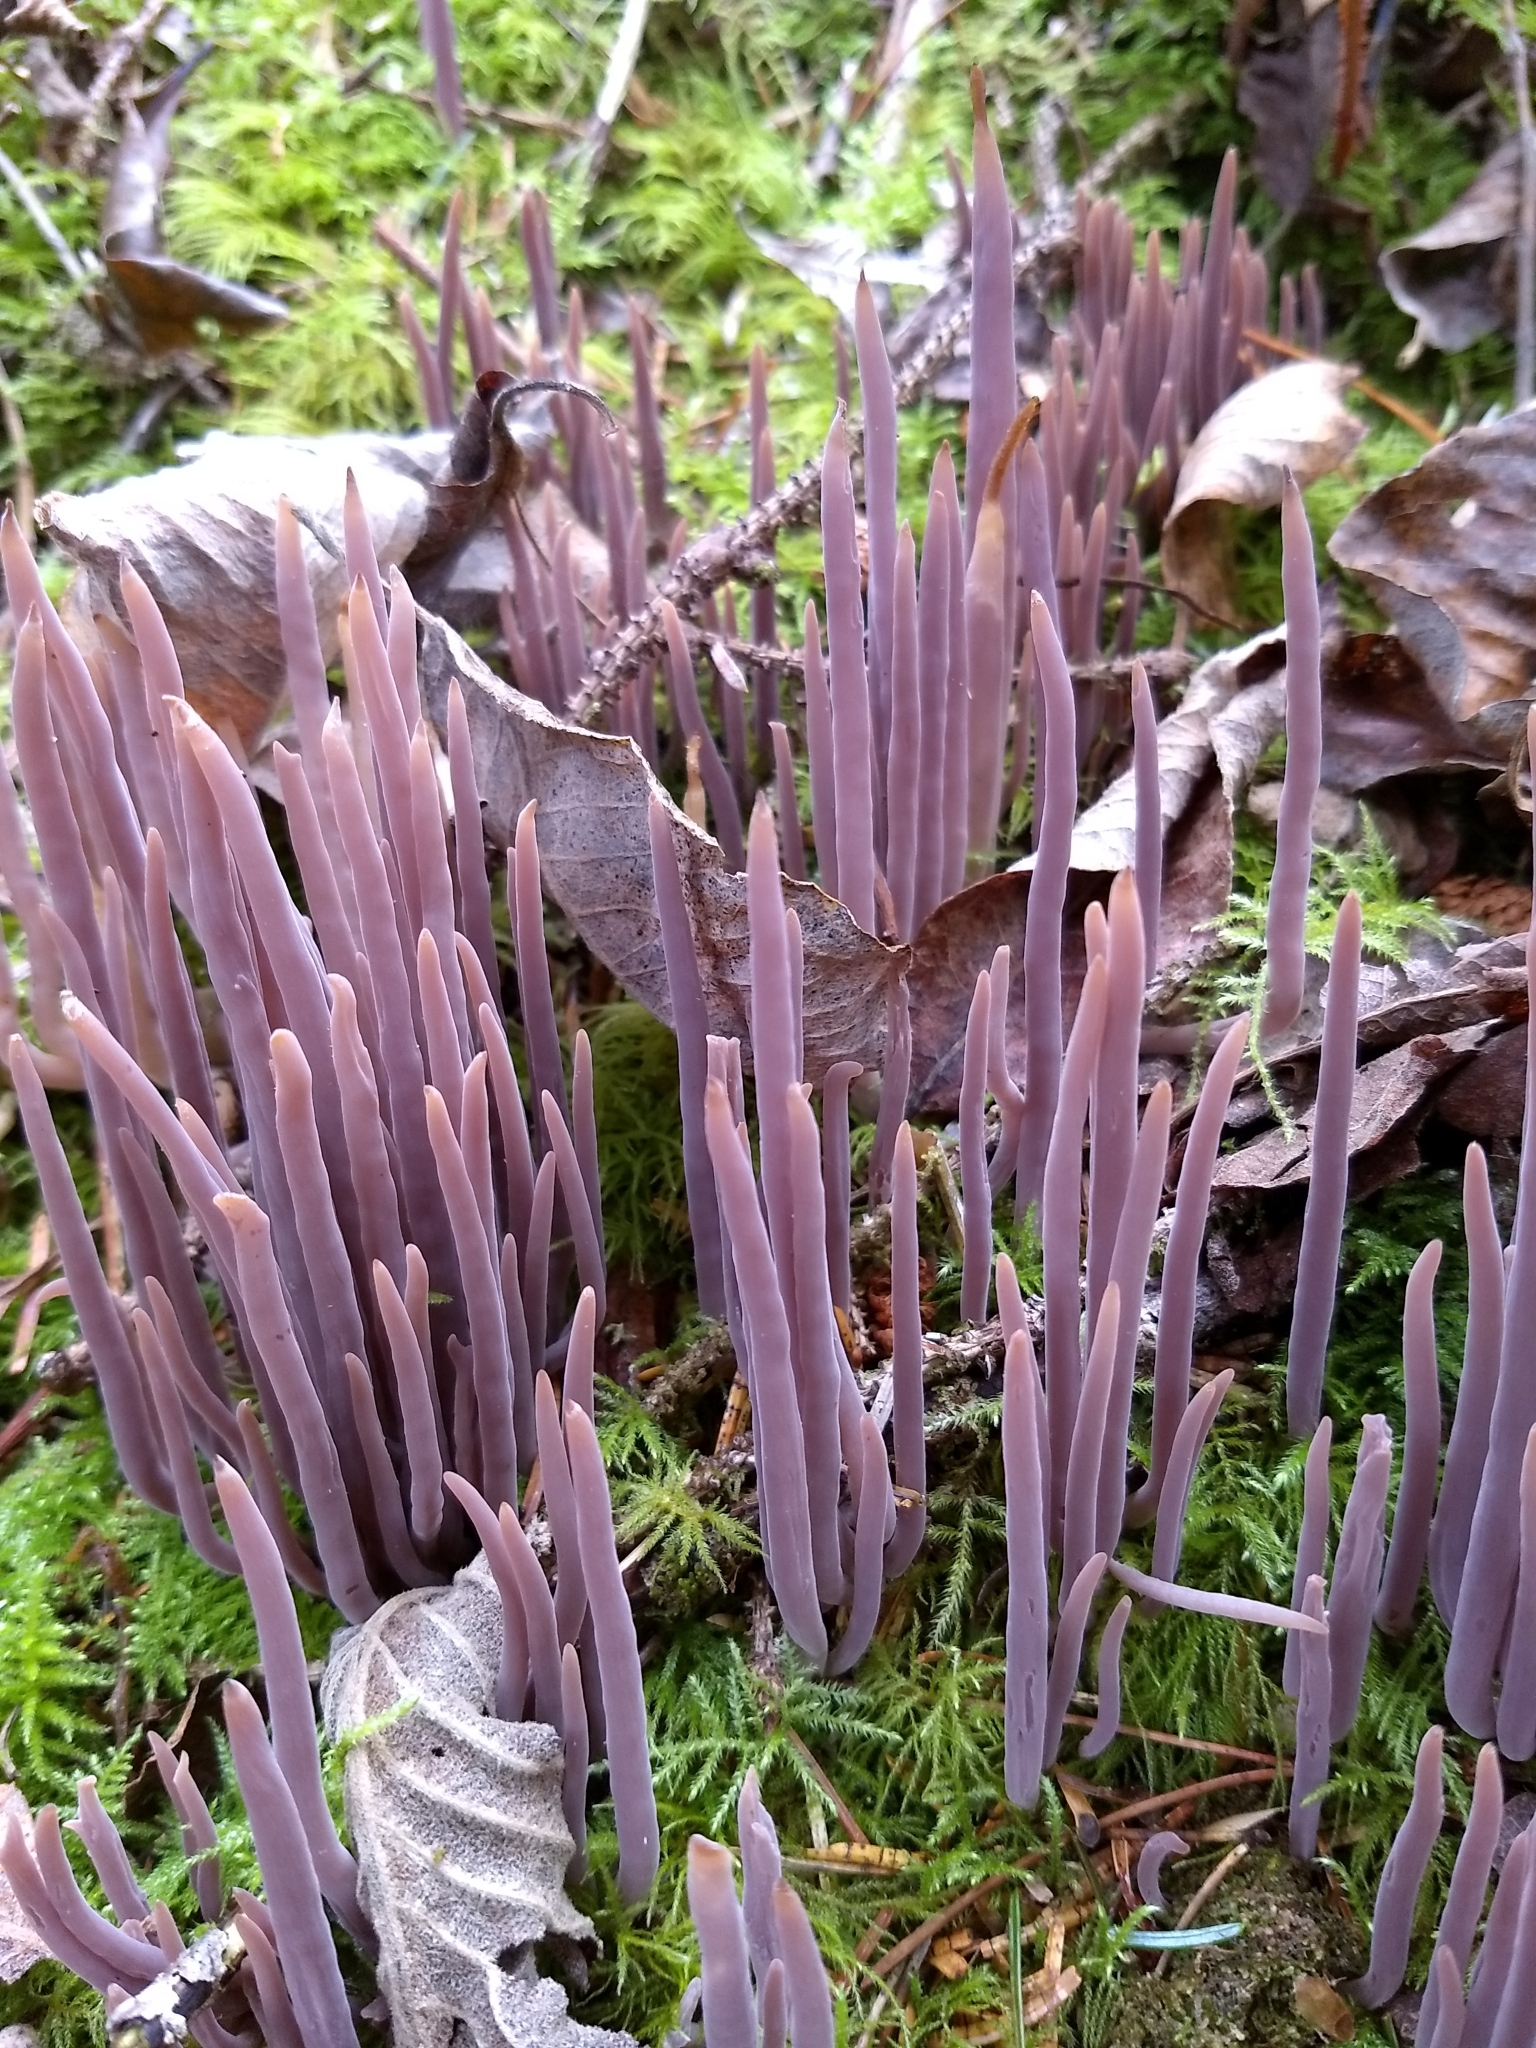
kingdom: Fungi
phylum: Basidiomycota
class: Agaricomycetes
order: Hymenochaetales
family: Rickenellaceae
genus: Alloclavaria
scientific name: Alloclavaria purpurea
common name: Purple spindles
